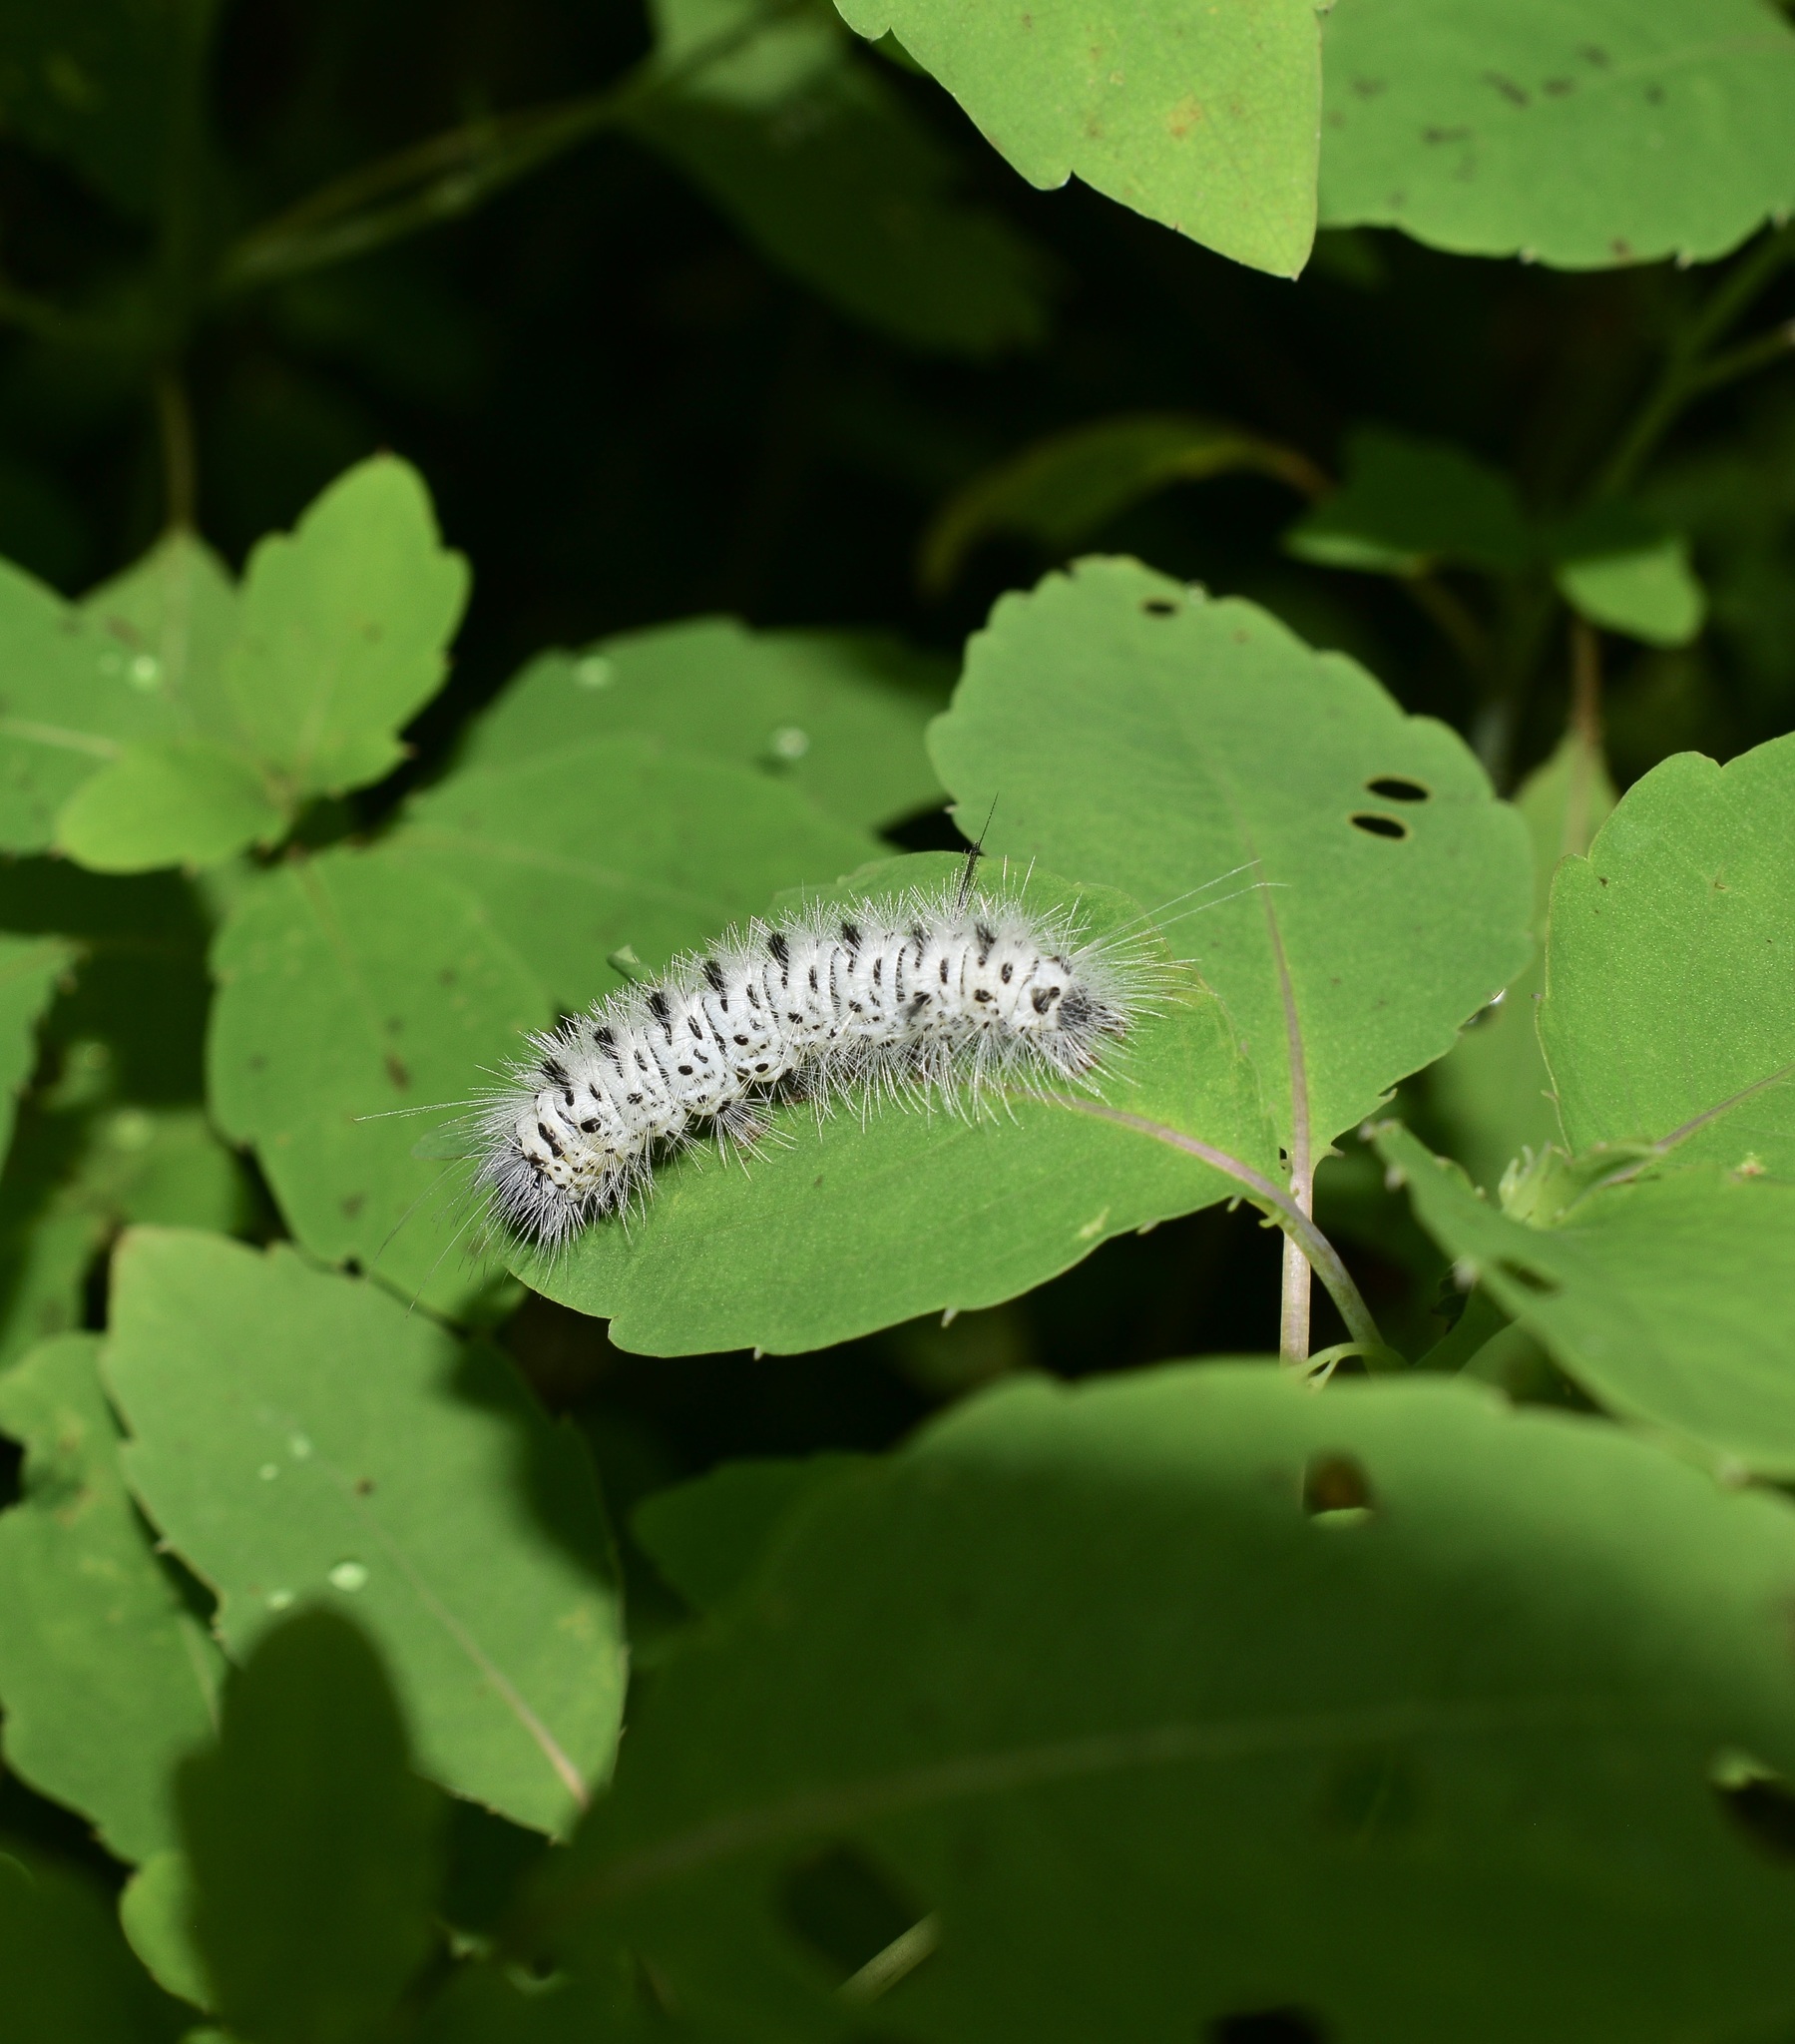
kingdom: Animalia
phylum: Arthropoda
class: Insecta
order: Lepidoptera
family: Erebidae
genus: Lophocampa
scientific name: Lophocampa caryae
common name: Hickory tussock moth
